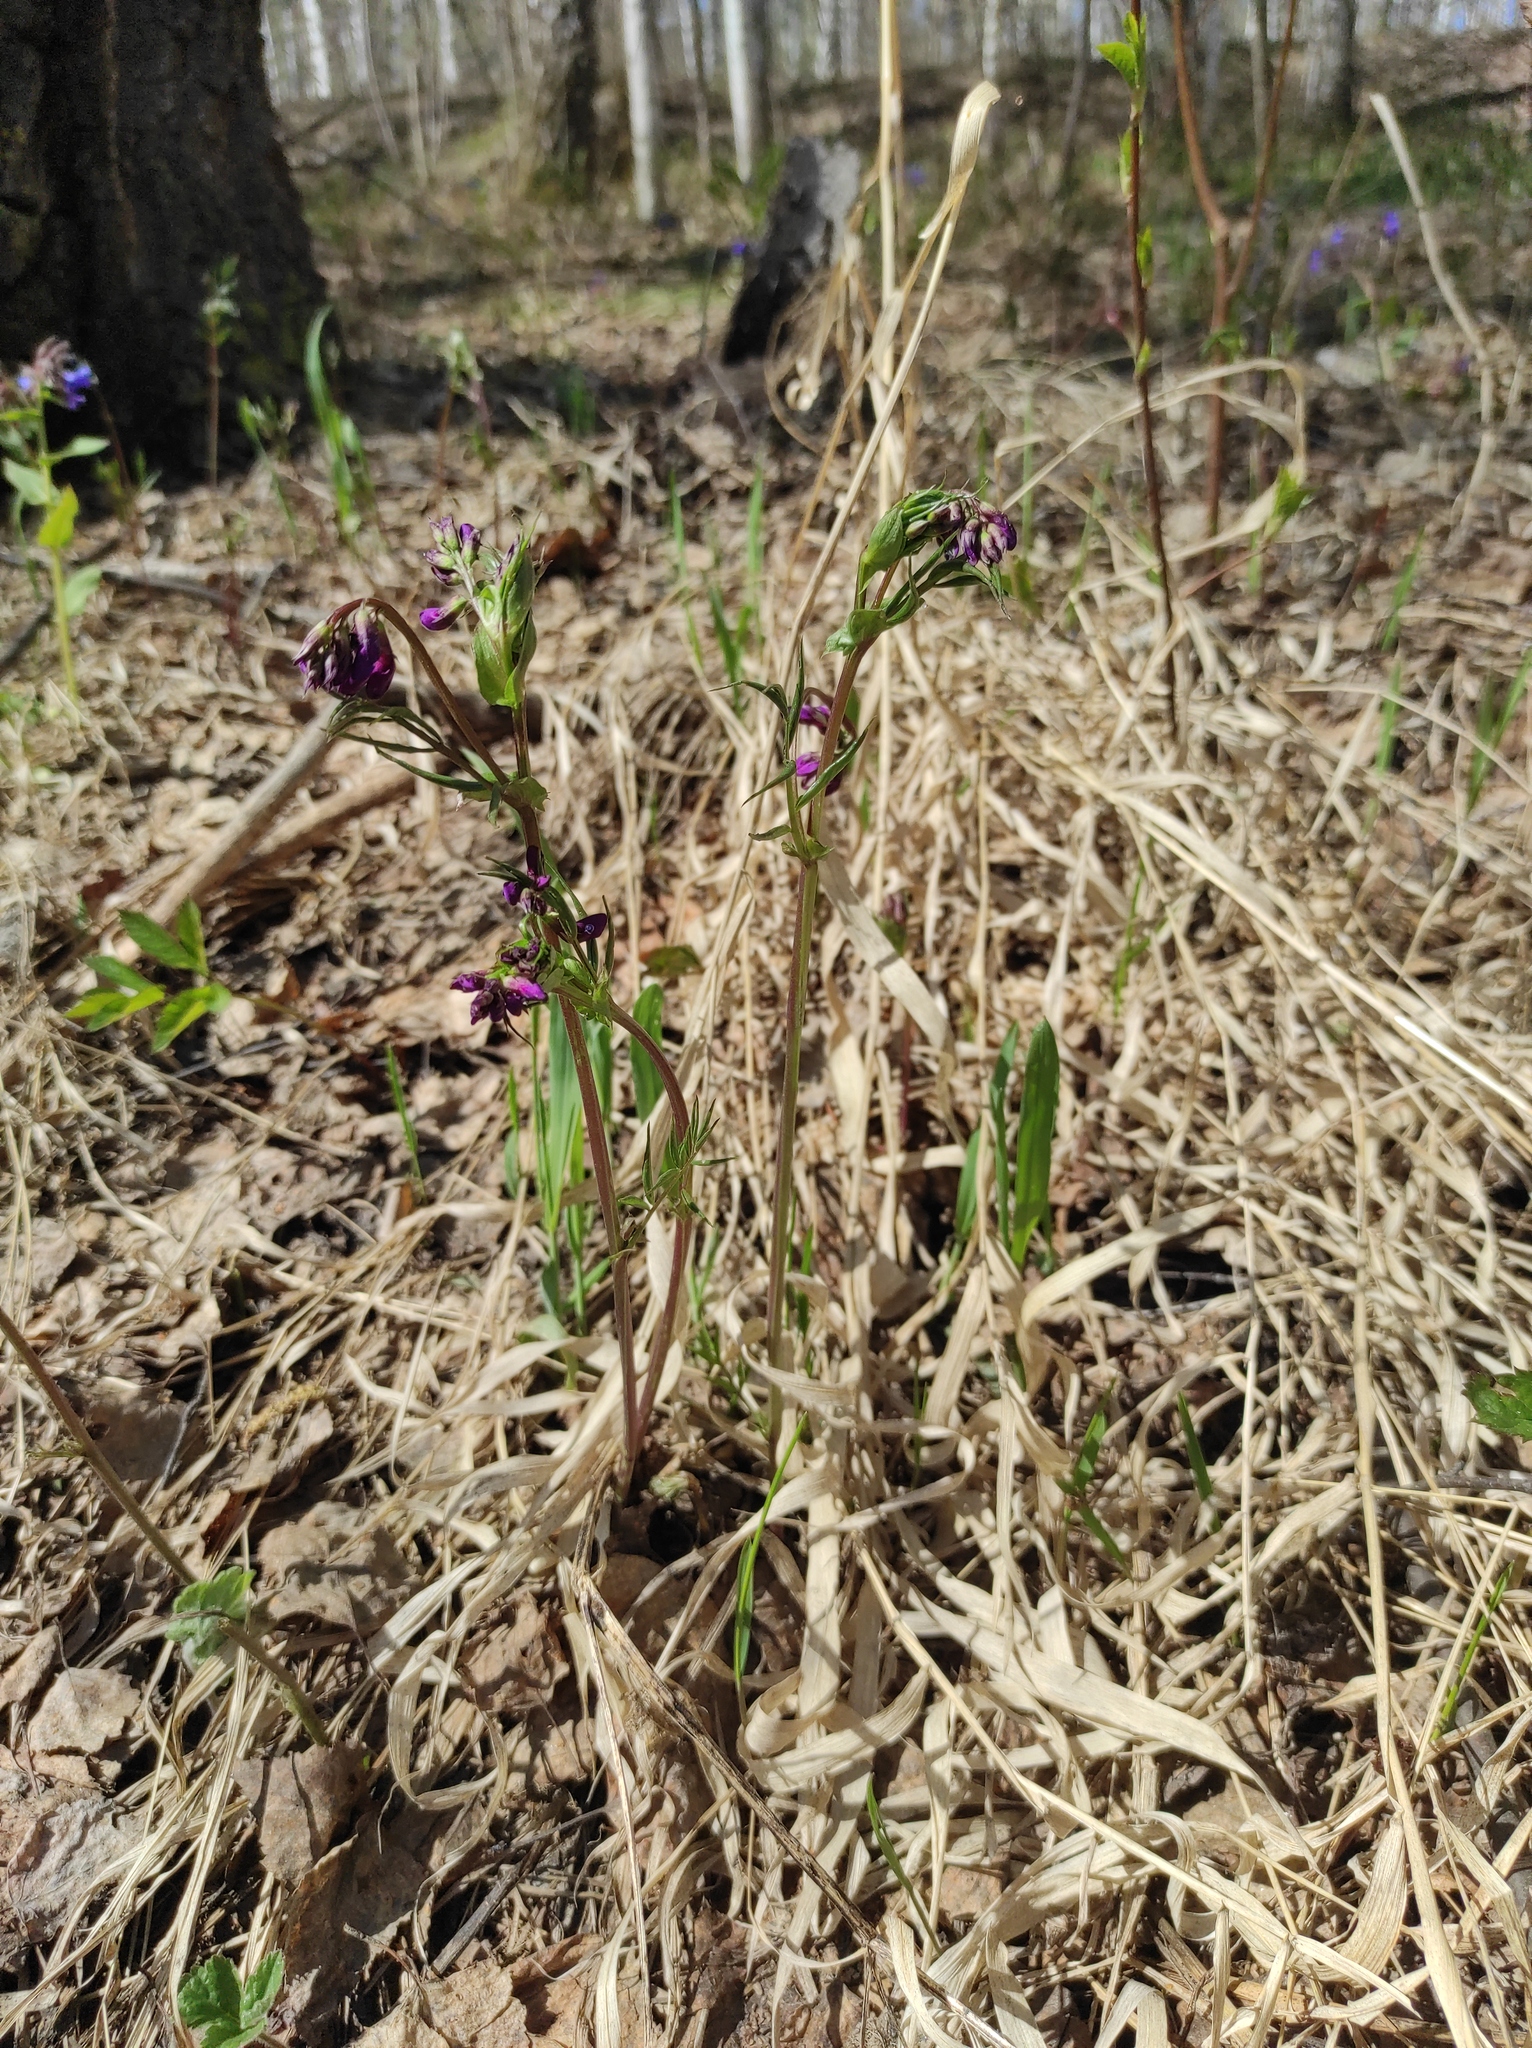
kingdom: Plantae
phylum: Tracheophyta
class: Magnoliopsida
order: Fabales
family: Fabaceae
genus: Lathyrus
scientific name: Lathyrus vernus
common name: Spring pea
